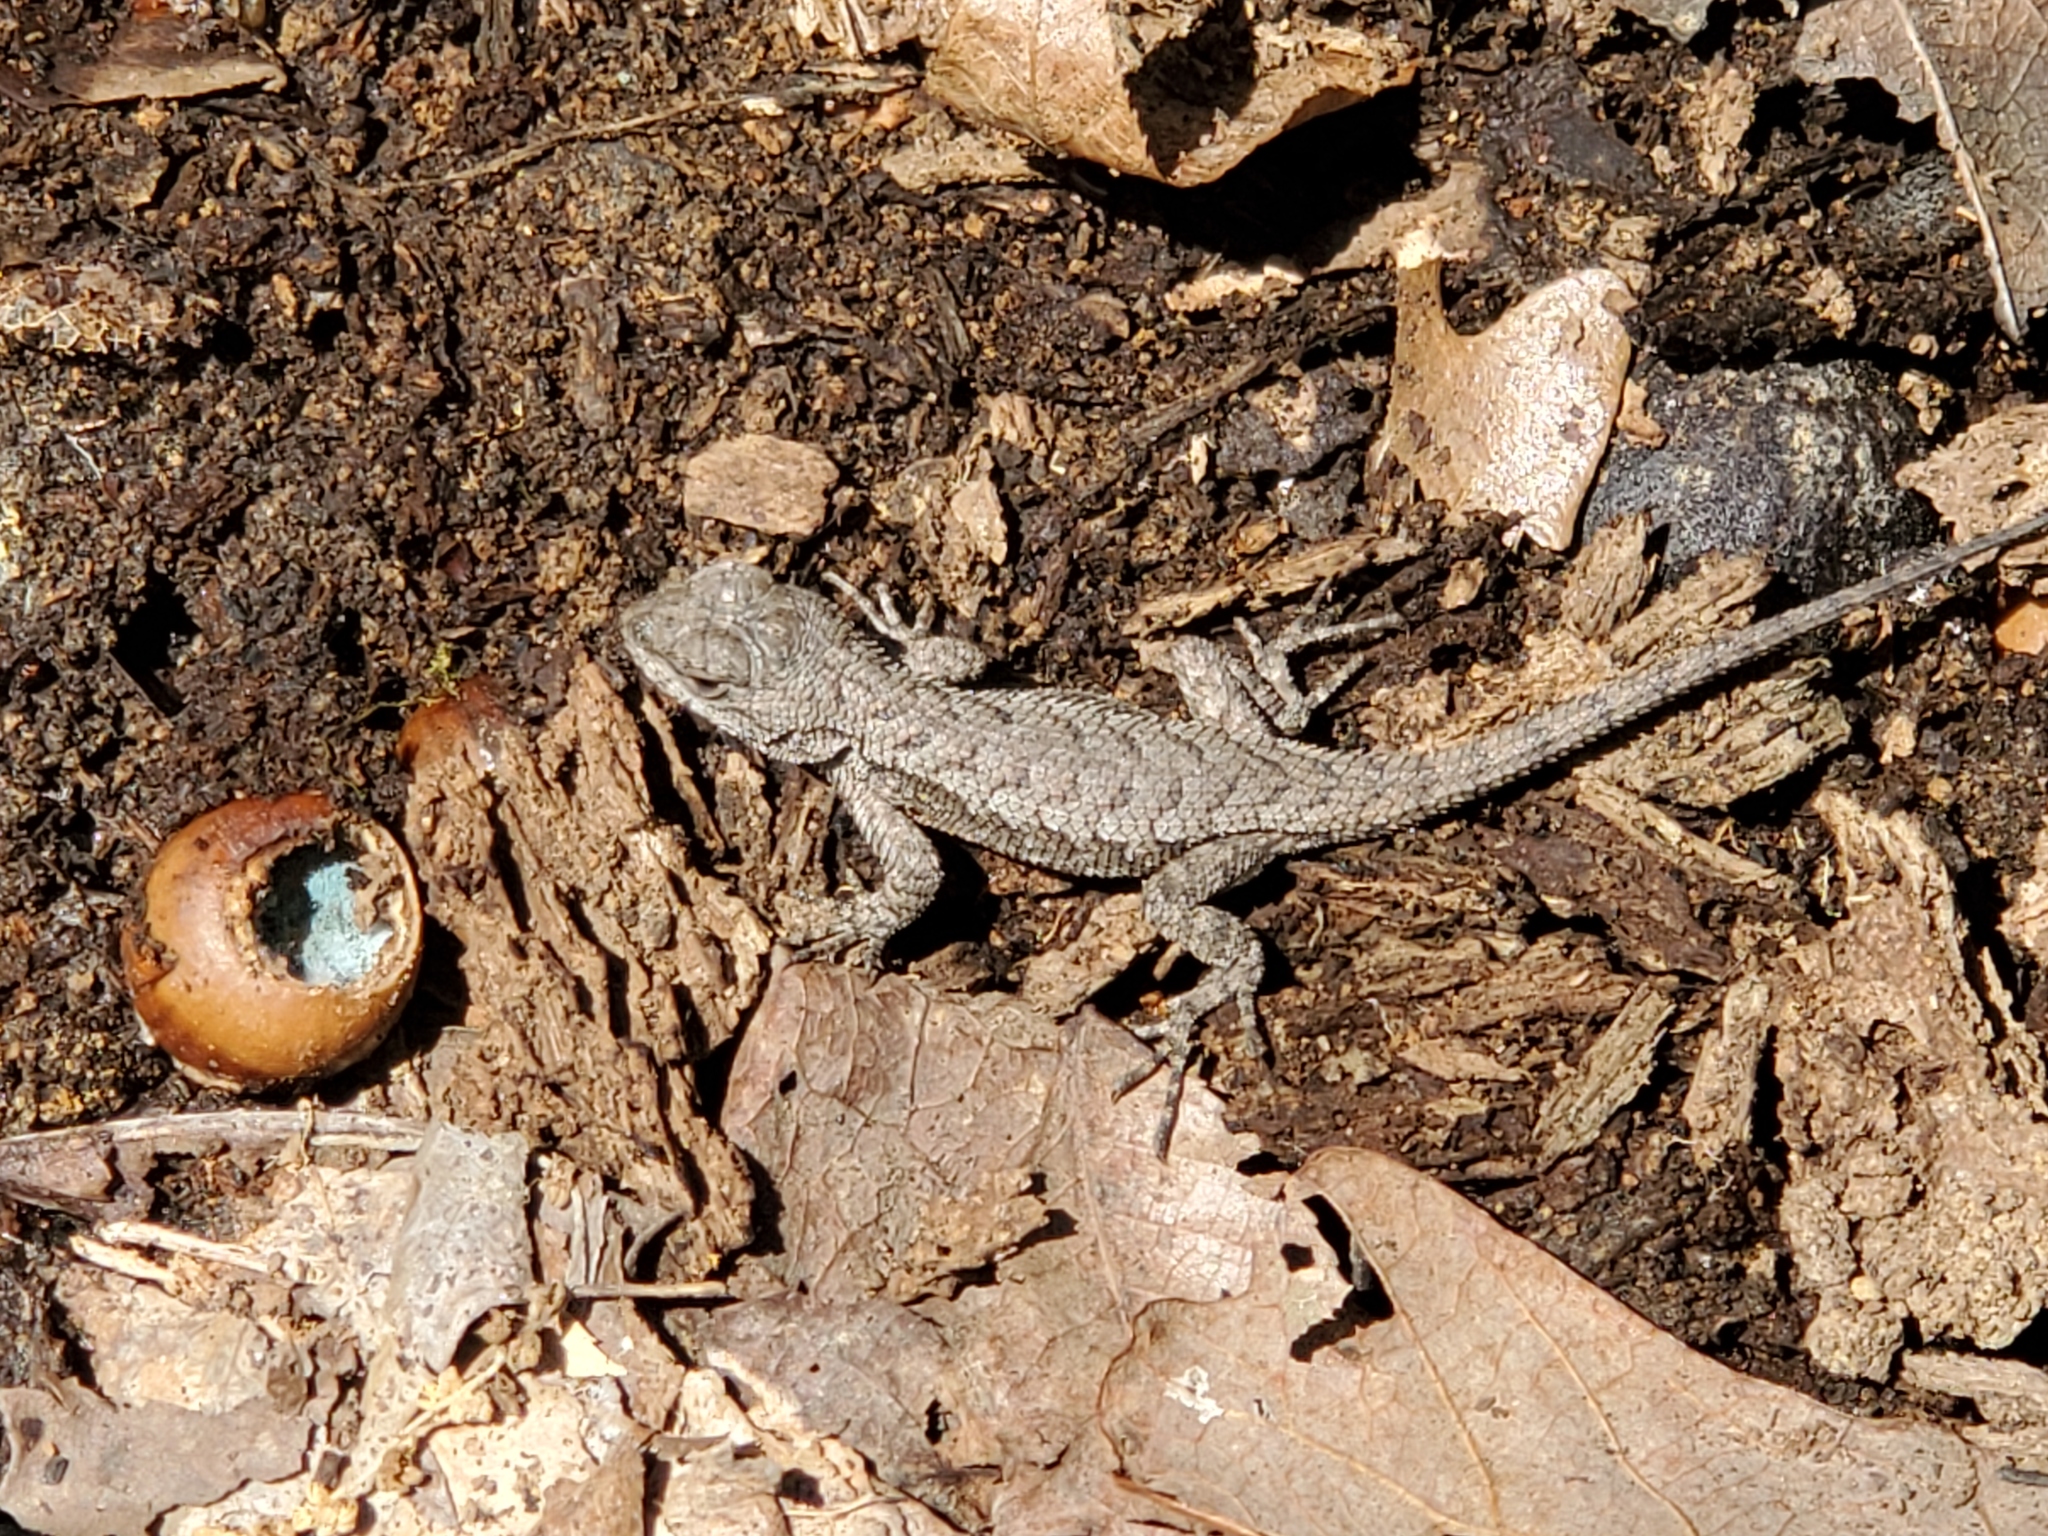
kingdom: Animalia
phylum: Chordata
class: Squamata
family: Phrynosomatidae
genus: Sceloporus
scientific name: Sceloporus undulatus
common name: Eastern fence lizard
